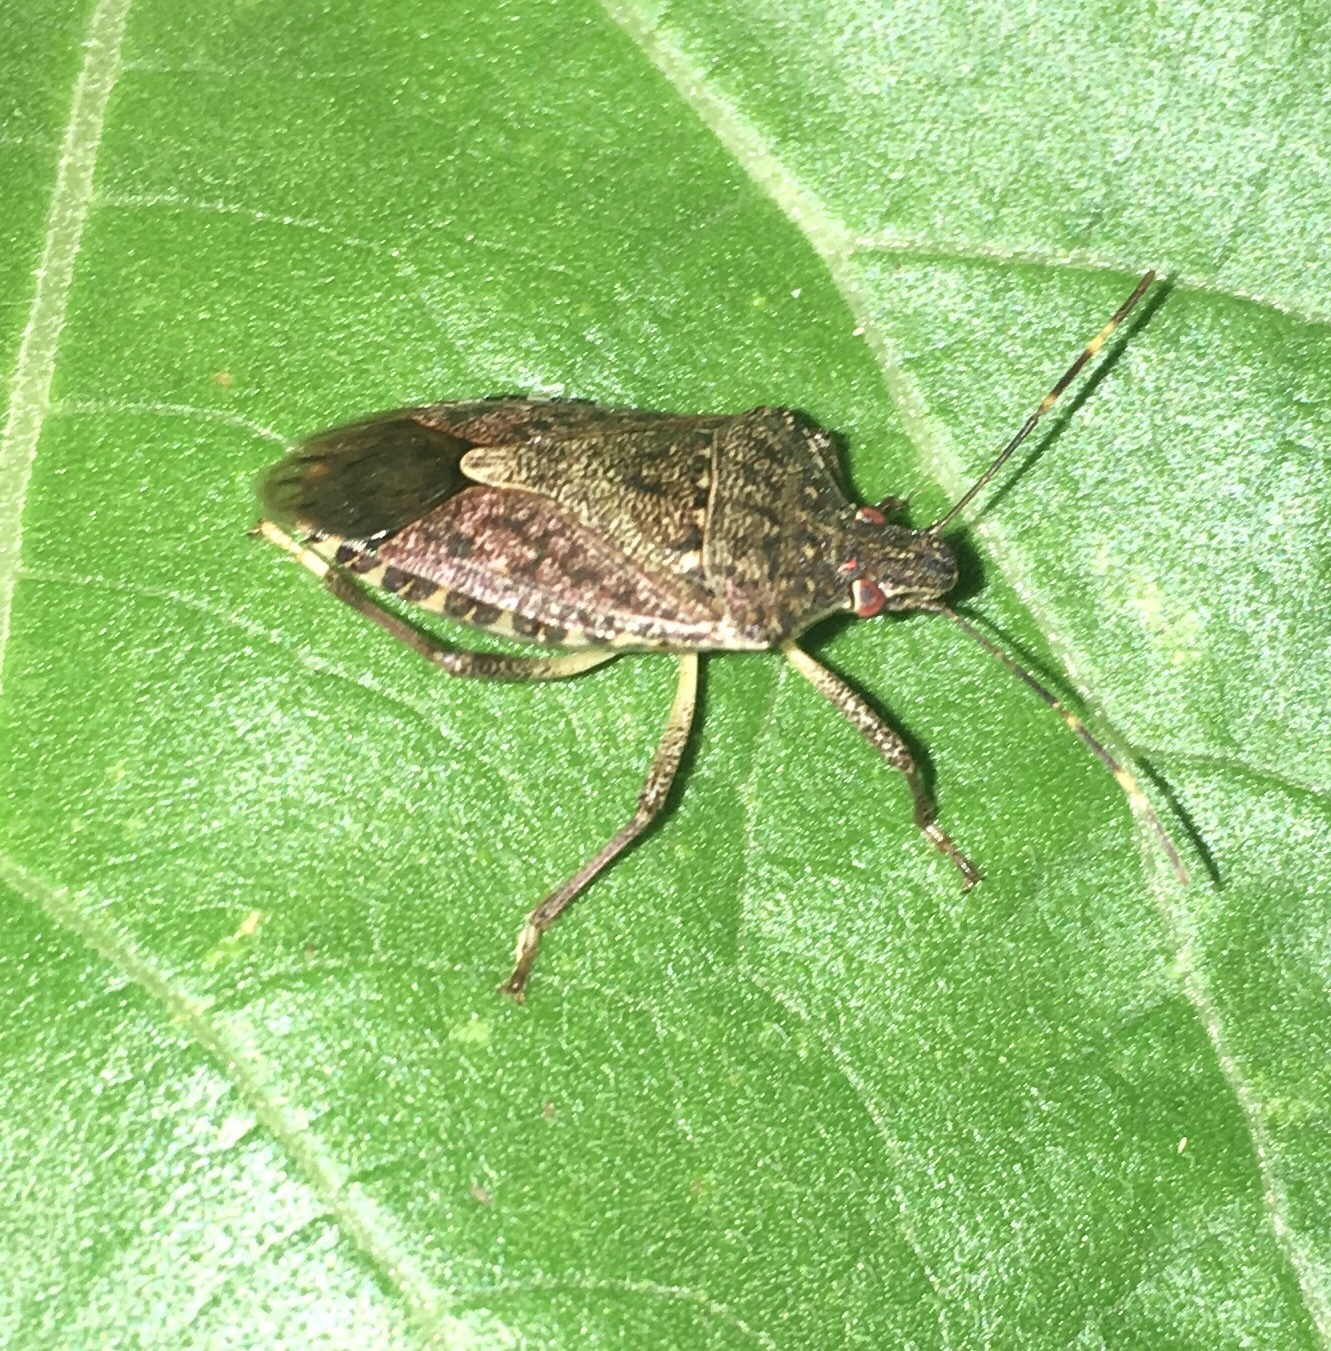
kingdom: Animalia
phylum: Arthropoda
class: Insecta
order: Hemiptera
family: Pentatomidae
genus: Halyomorpha
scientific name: Halyomorpha halys
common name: Brown marmorated stink bug
